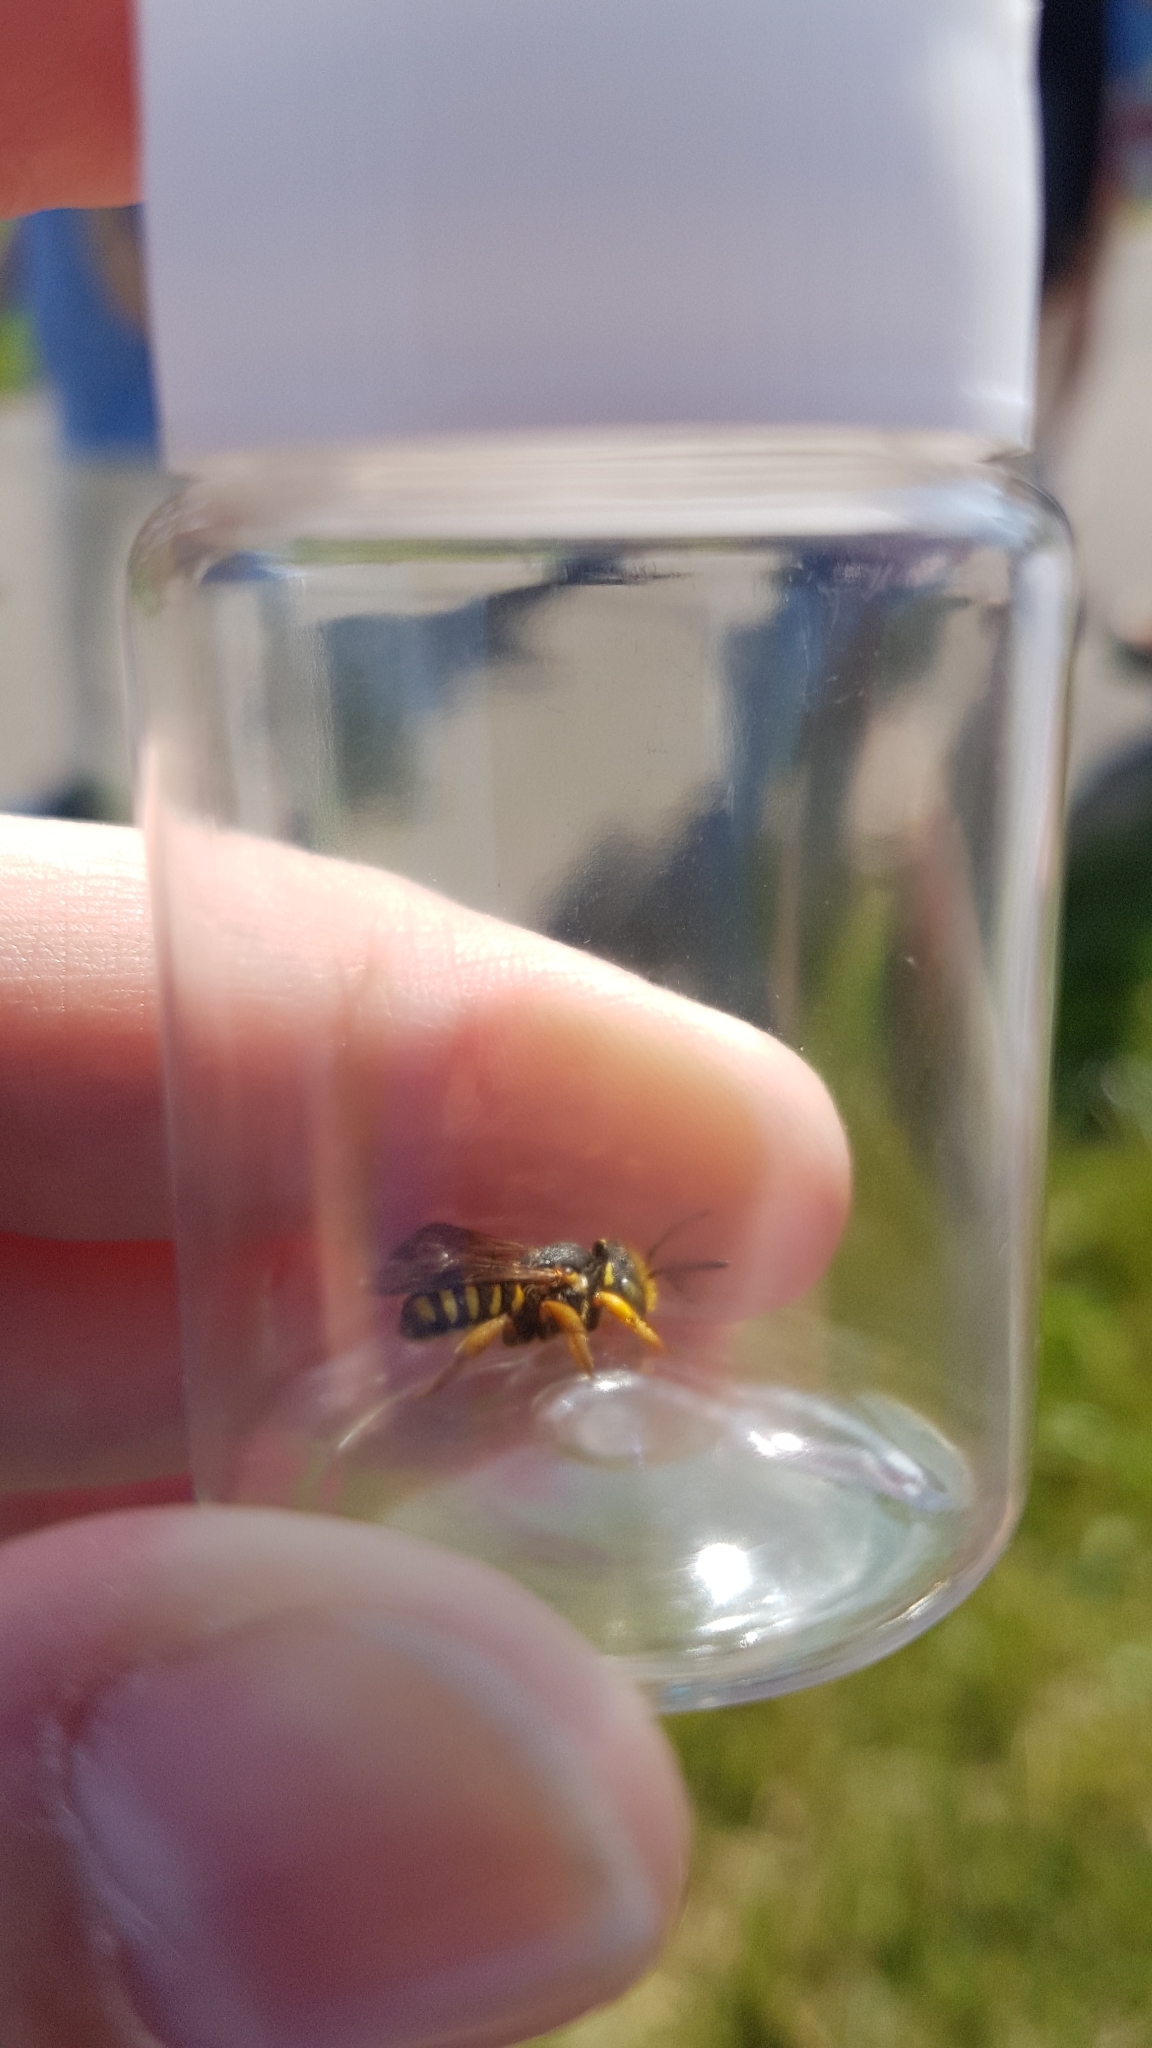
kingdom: Animalia
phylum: Arthropoda
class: Insecta
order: Hymenoptera
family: Megachilidae
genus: Anthidium
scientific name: Anthidium oblongatum
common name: Oblong wool carder bee
